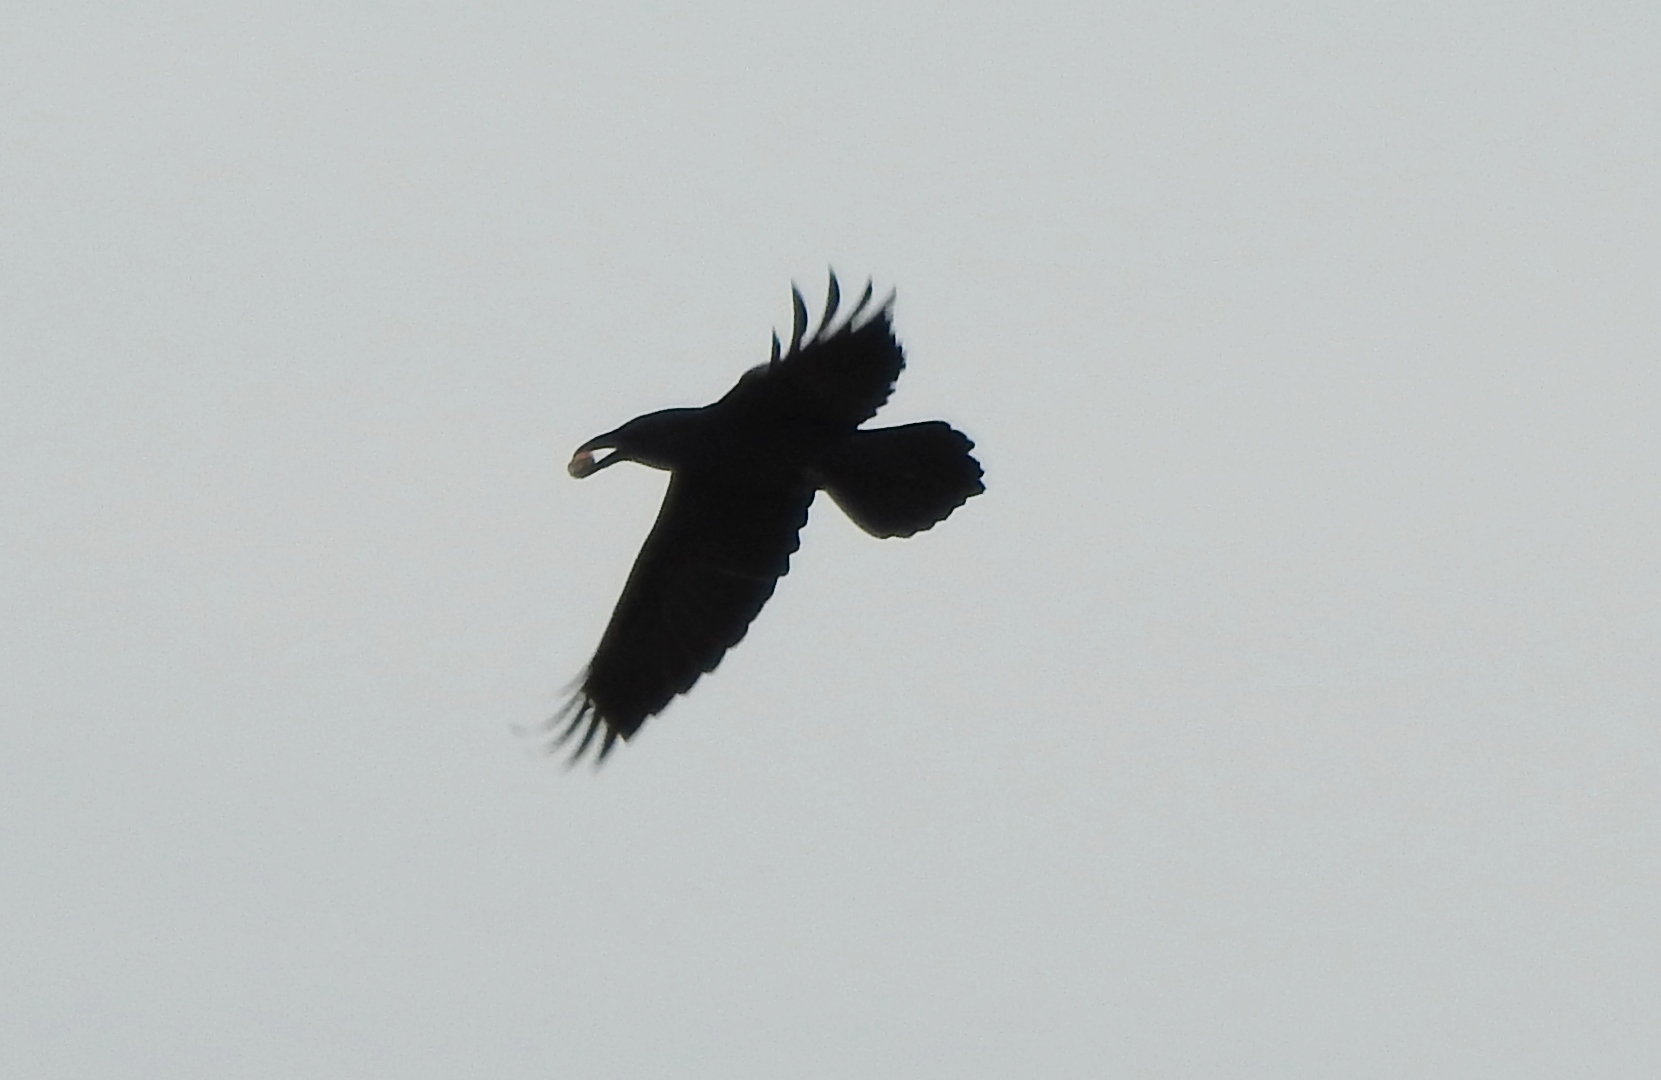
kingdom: Animalia
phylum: Chordata
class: Aves
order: Passeriformes
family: Corvidae
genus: Corvus
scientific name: Corvus corax
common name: Common raven
